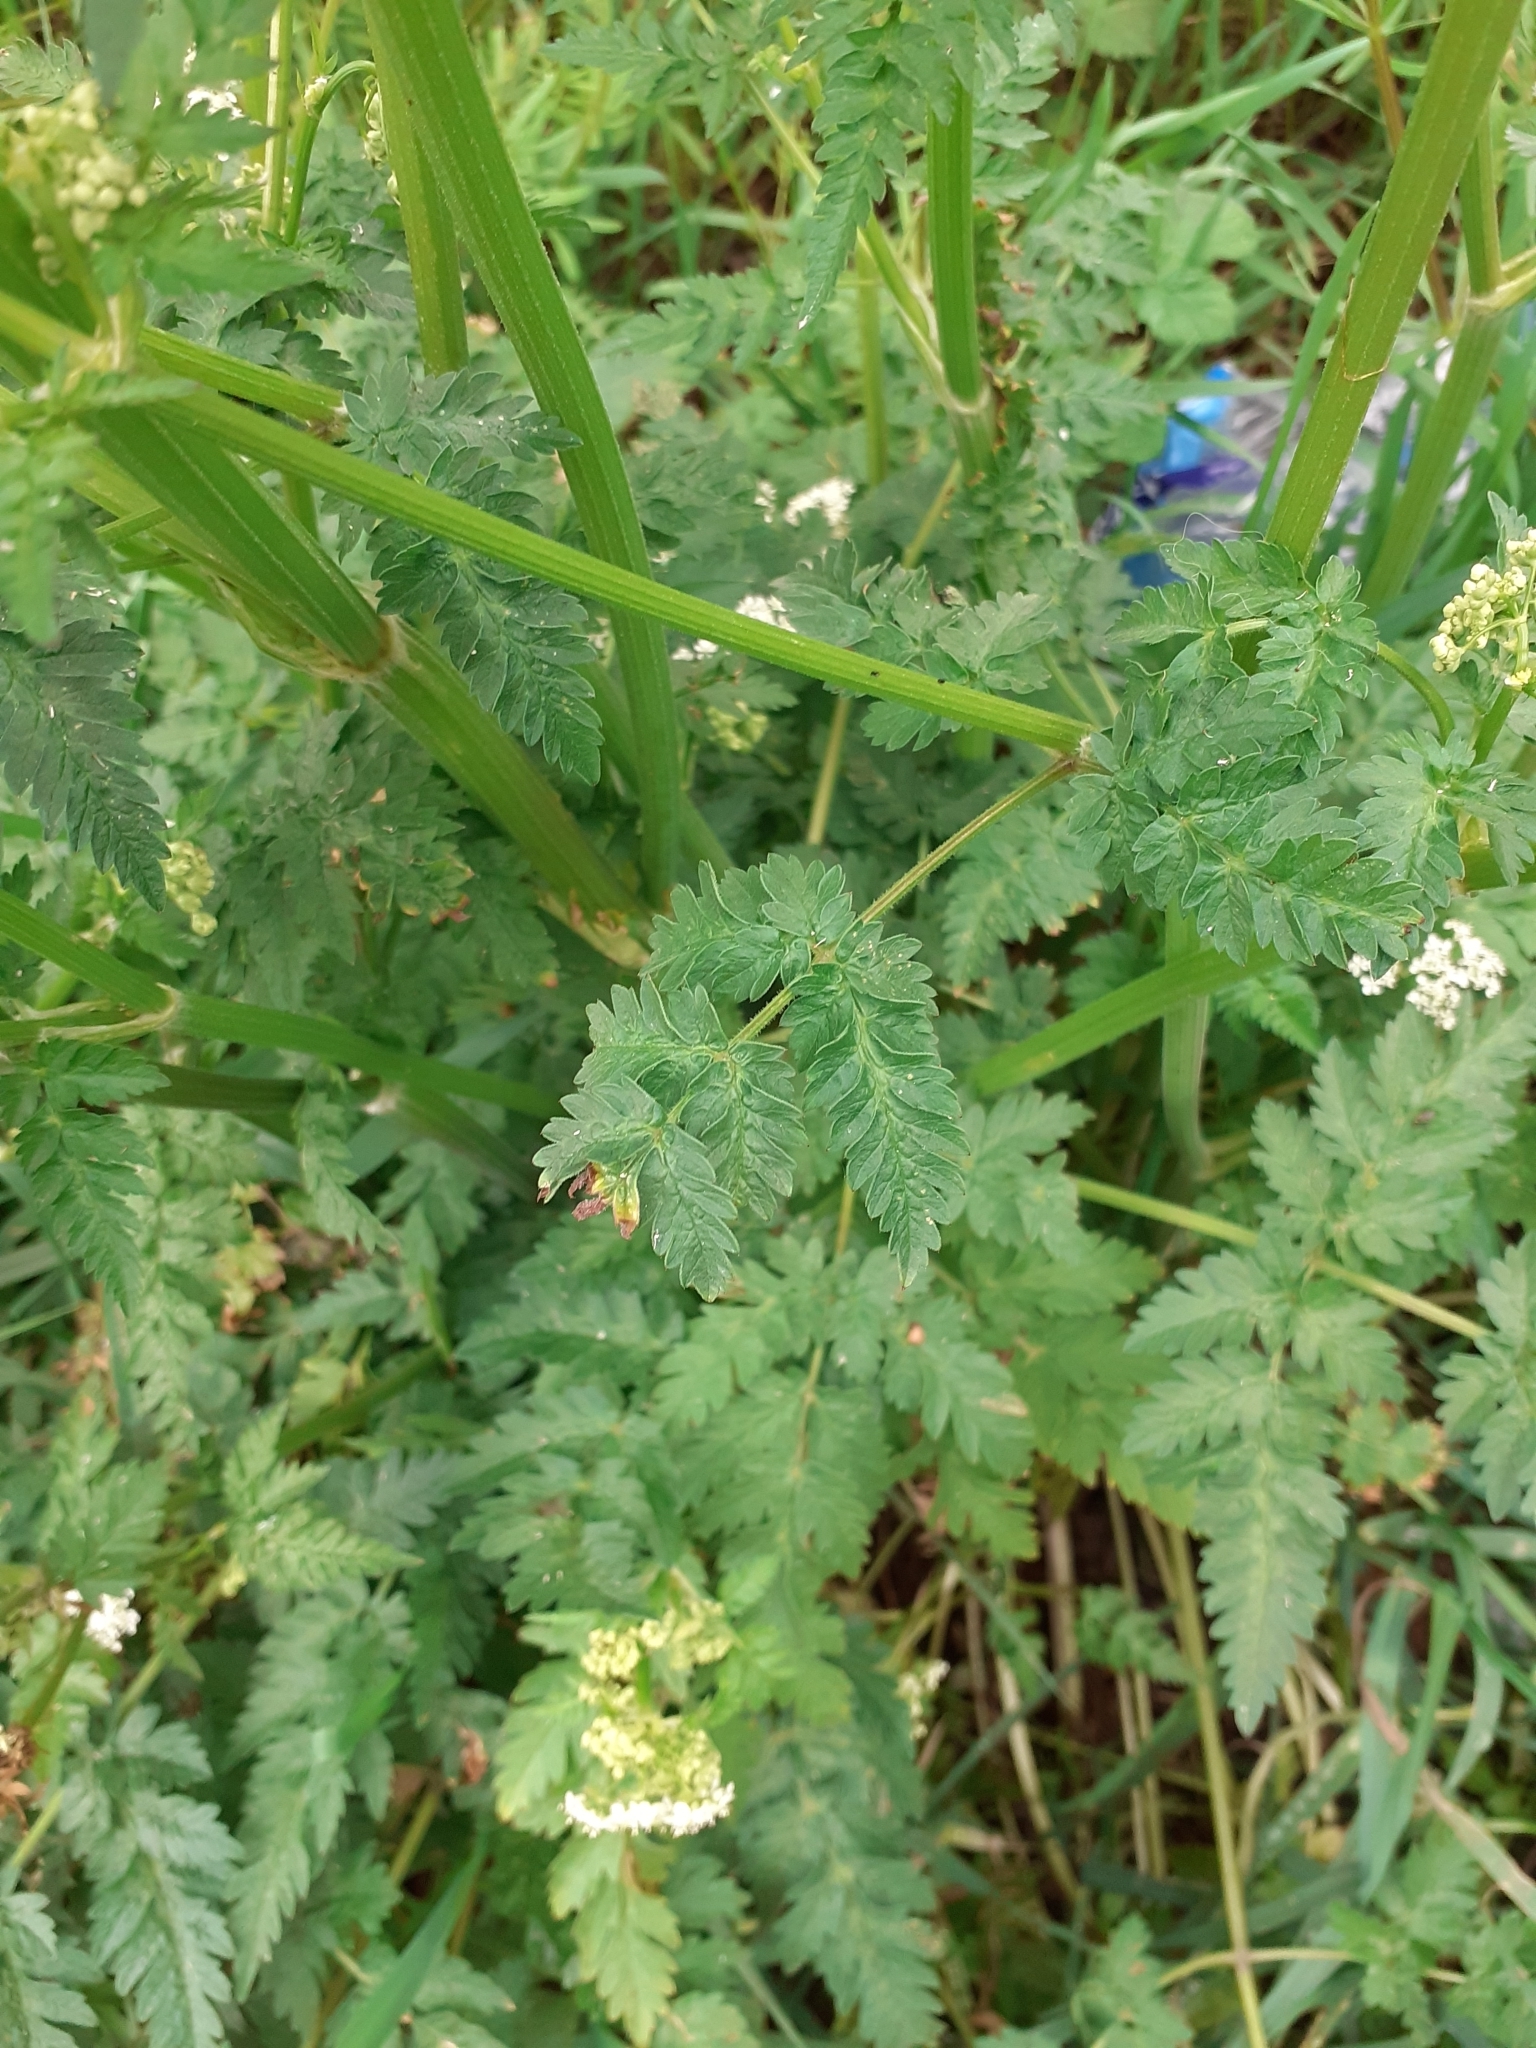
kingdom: Plantae
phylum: Tracheophyta
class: Magnoliopsida
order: Apiales
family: Apiaceae
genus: Anthriscus
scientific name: Anthriscus sylvestris
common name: Cow parsley
